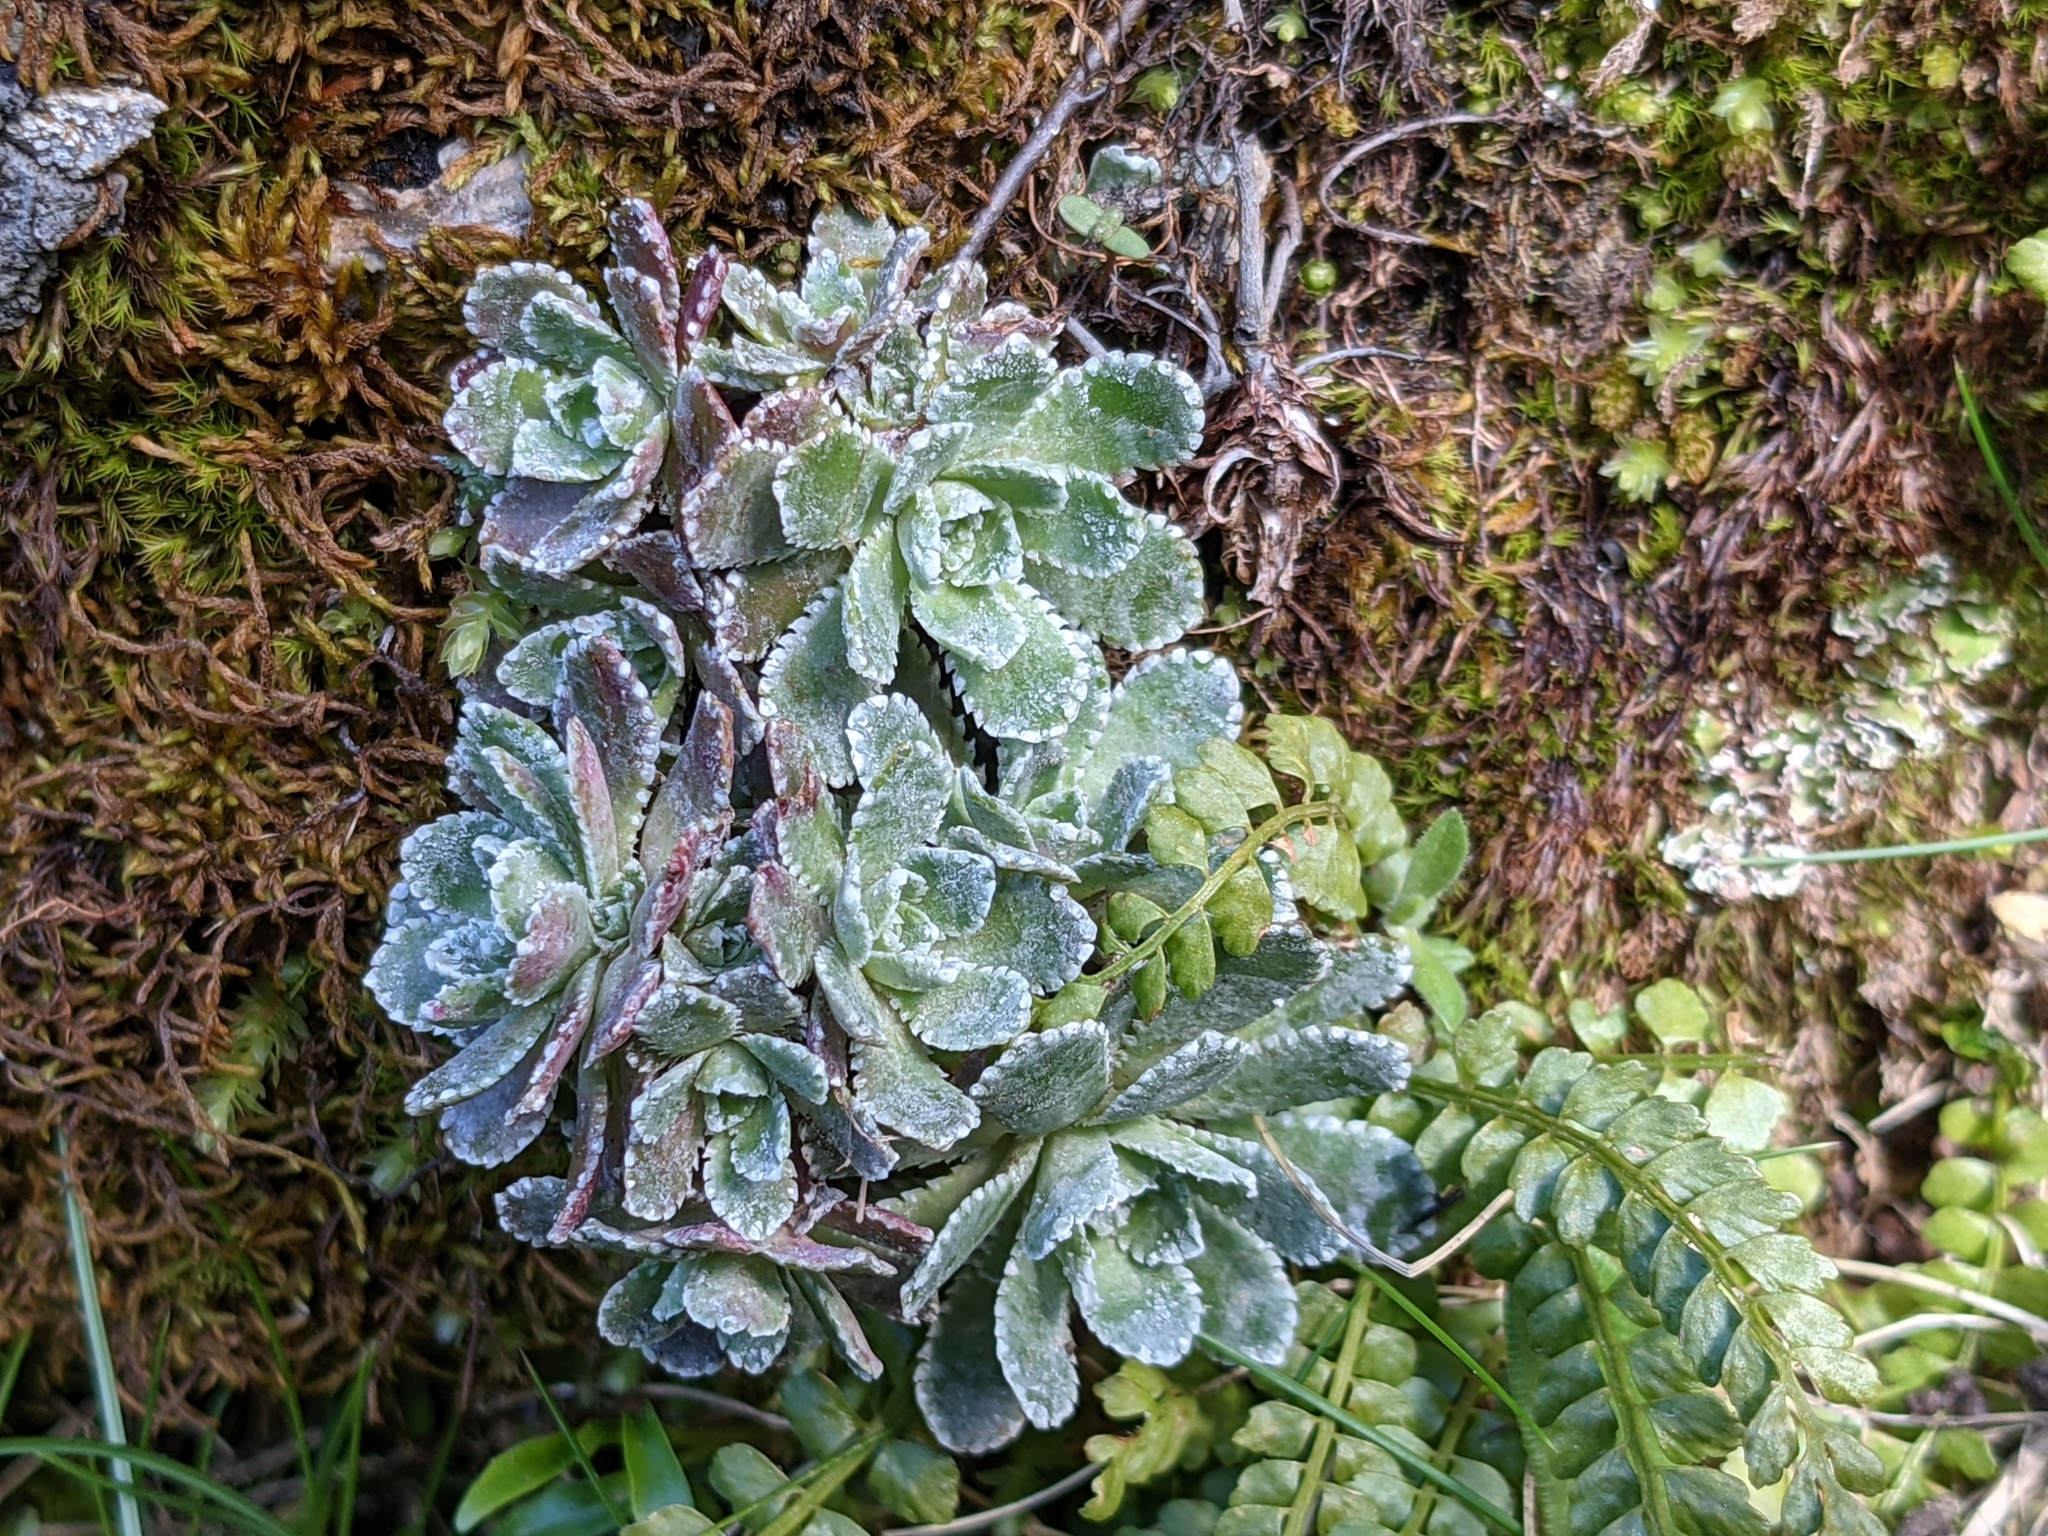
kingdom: Plantae
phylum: Tracheophyta
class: Magnoliopsida
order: Saxifragales
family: Saxifragaceae
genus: Saxifraga
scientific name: Saxifraga paniculata
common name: Livelong saxifrage
